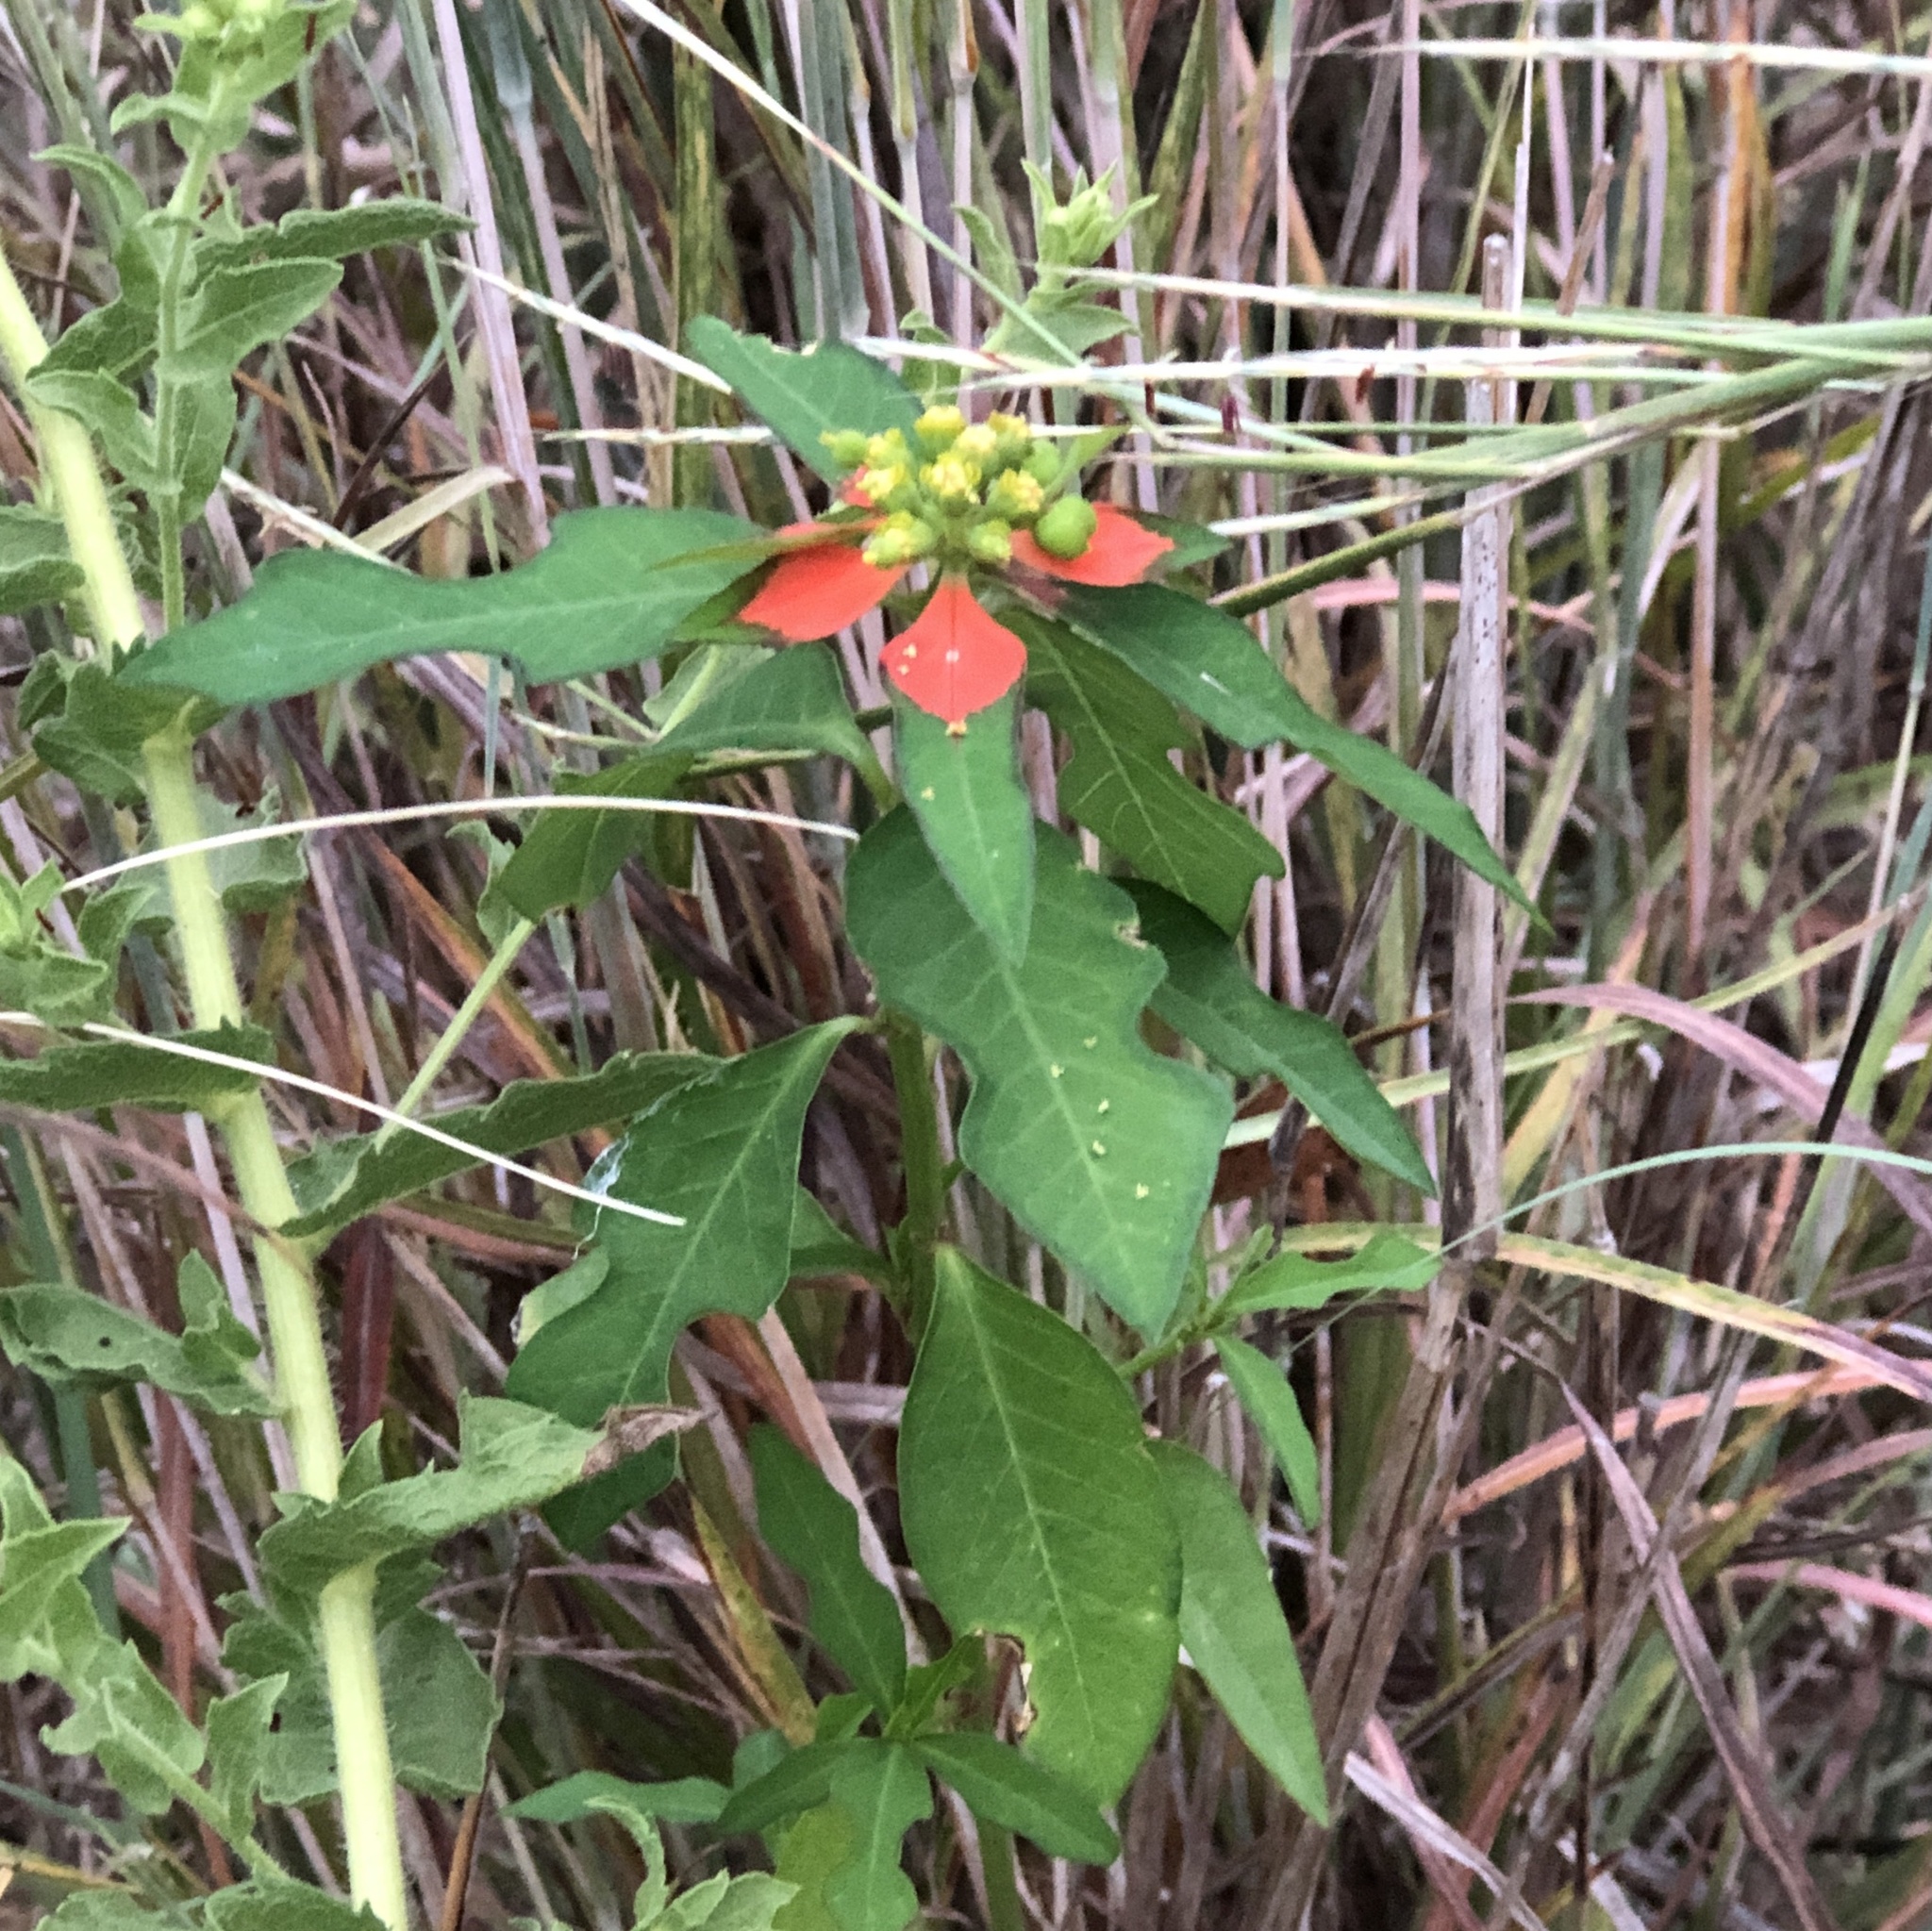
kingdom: Plantae
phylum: Tracheophyta
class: Magnoliopsida
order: Malpighiales
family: Euphorbiaceae
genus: Euphorbia
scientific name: Euphorbia heterophylla
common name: Mexican fireplant
